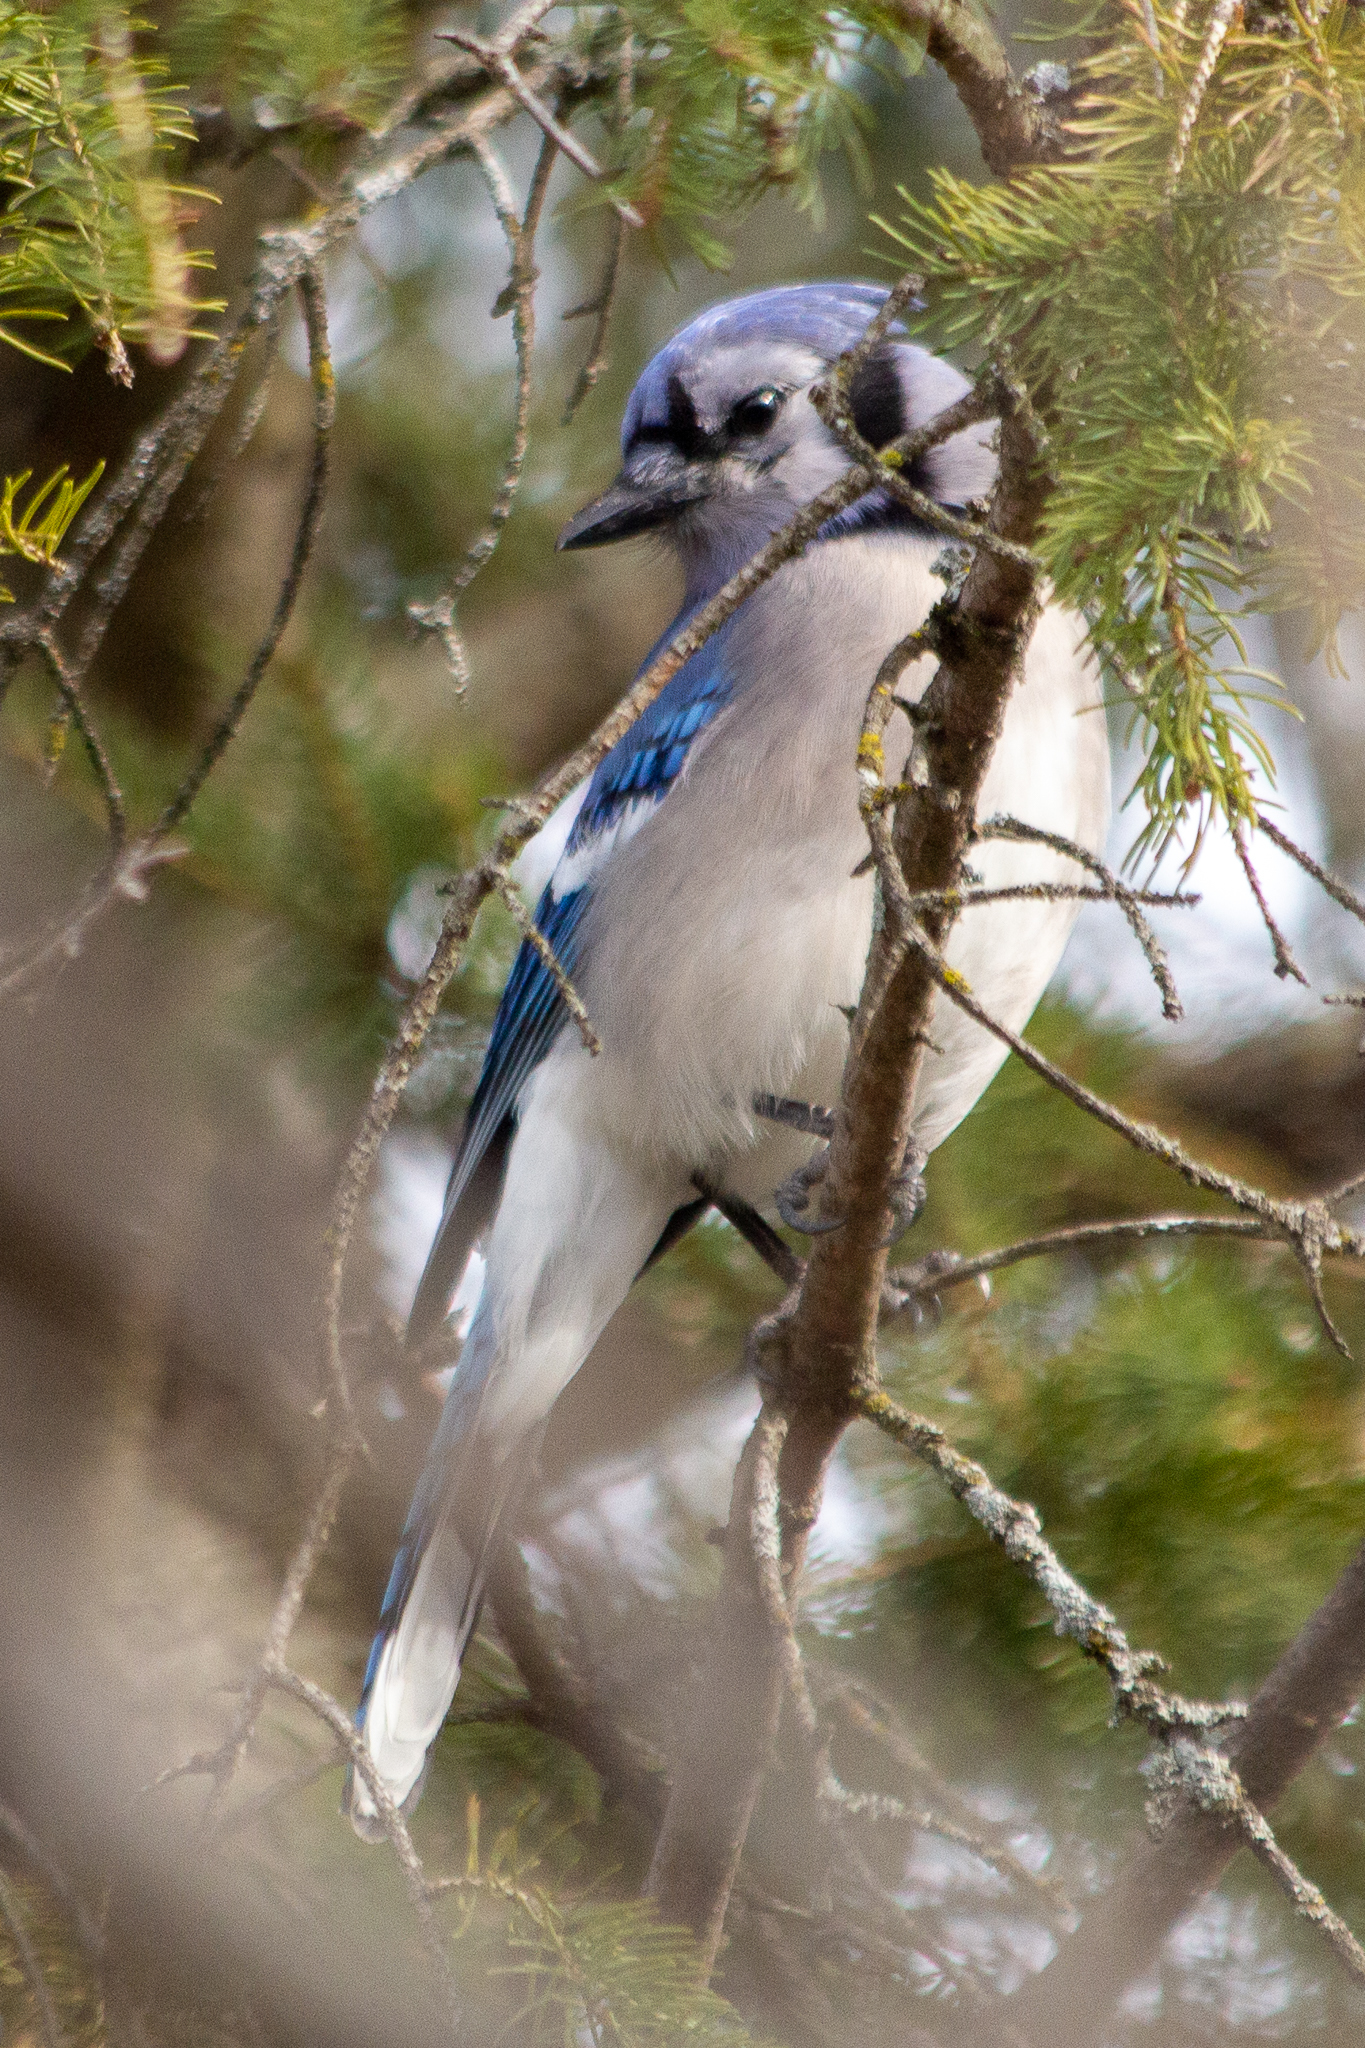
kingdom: Animalia
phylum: Chordata
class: Aves
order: Passeriformes
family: Corvidae
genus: Cyanocitta
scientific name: Cyanocitta cristata
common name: Blue jay
